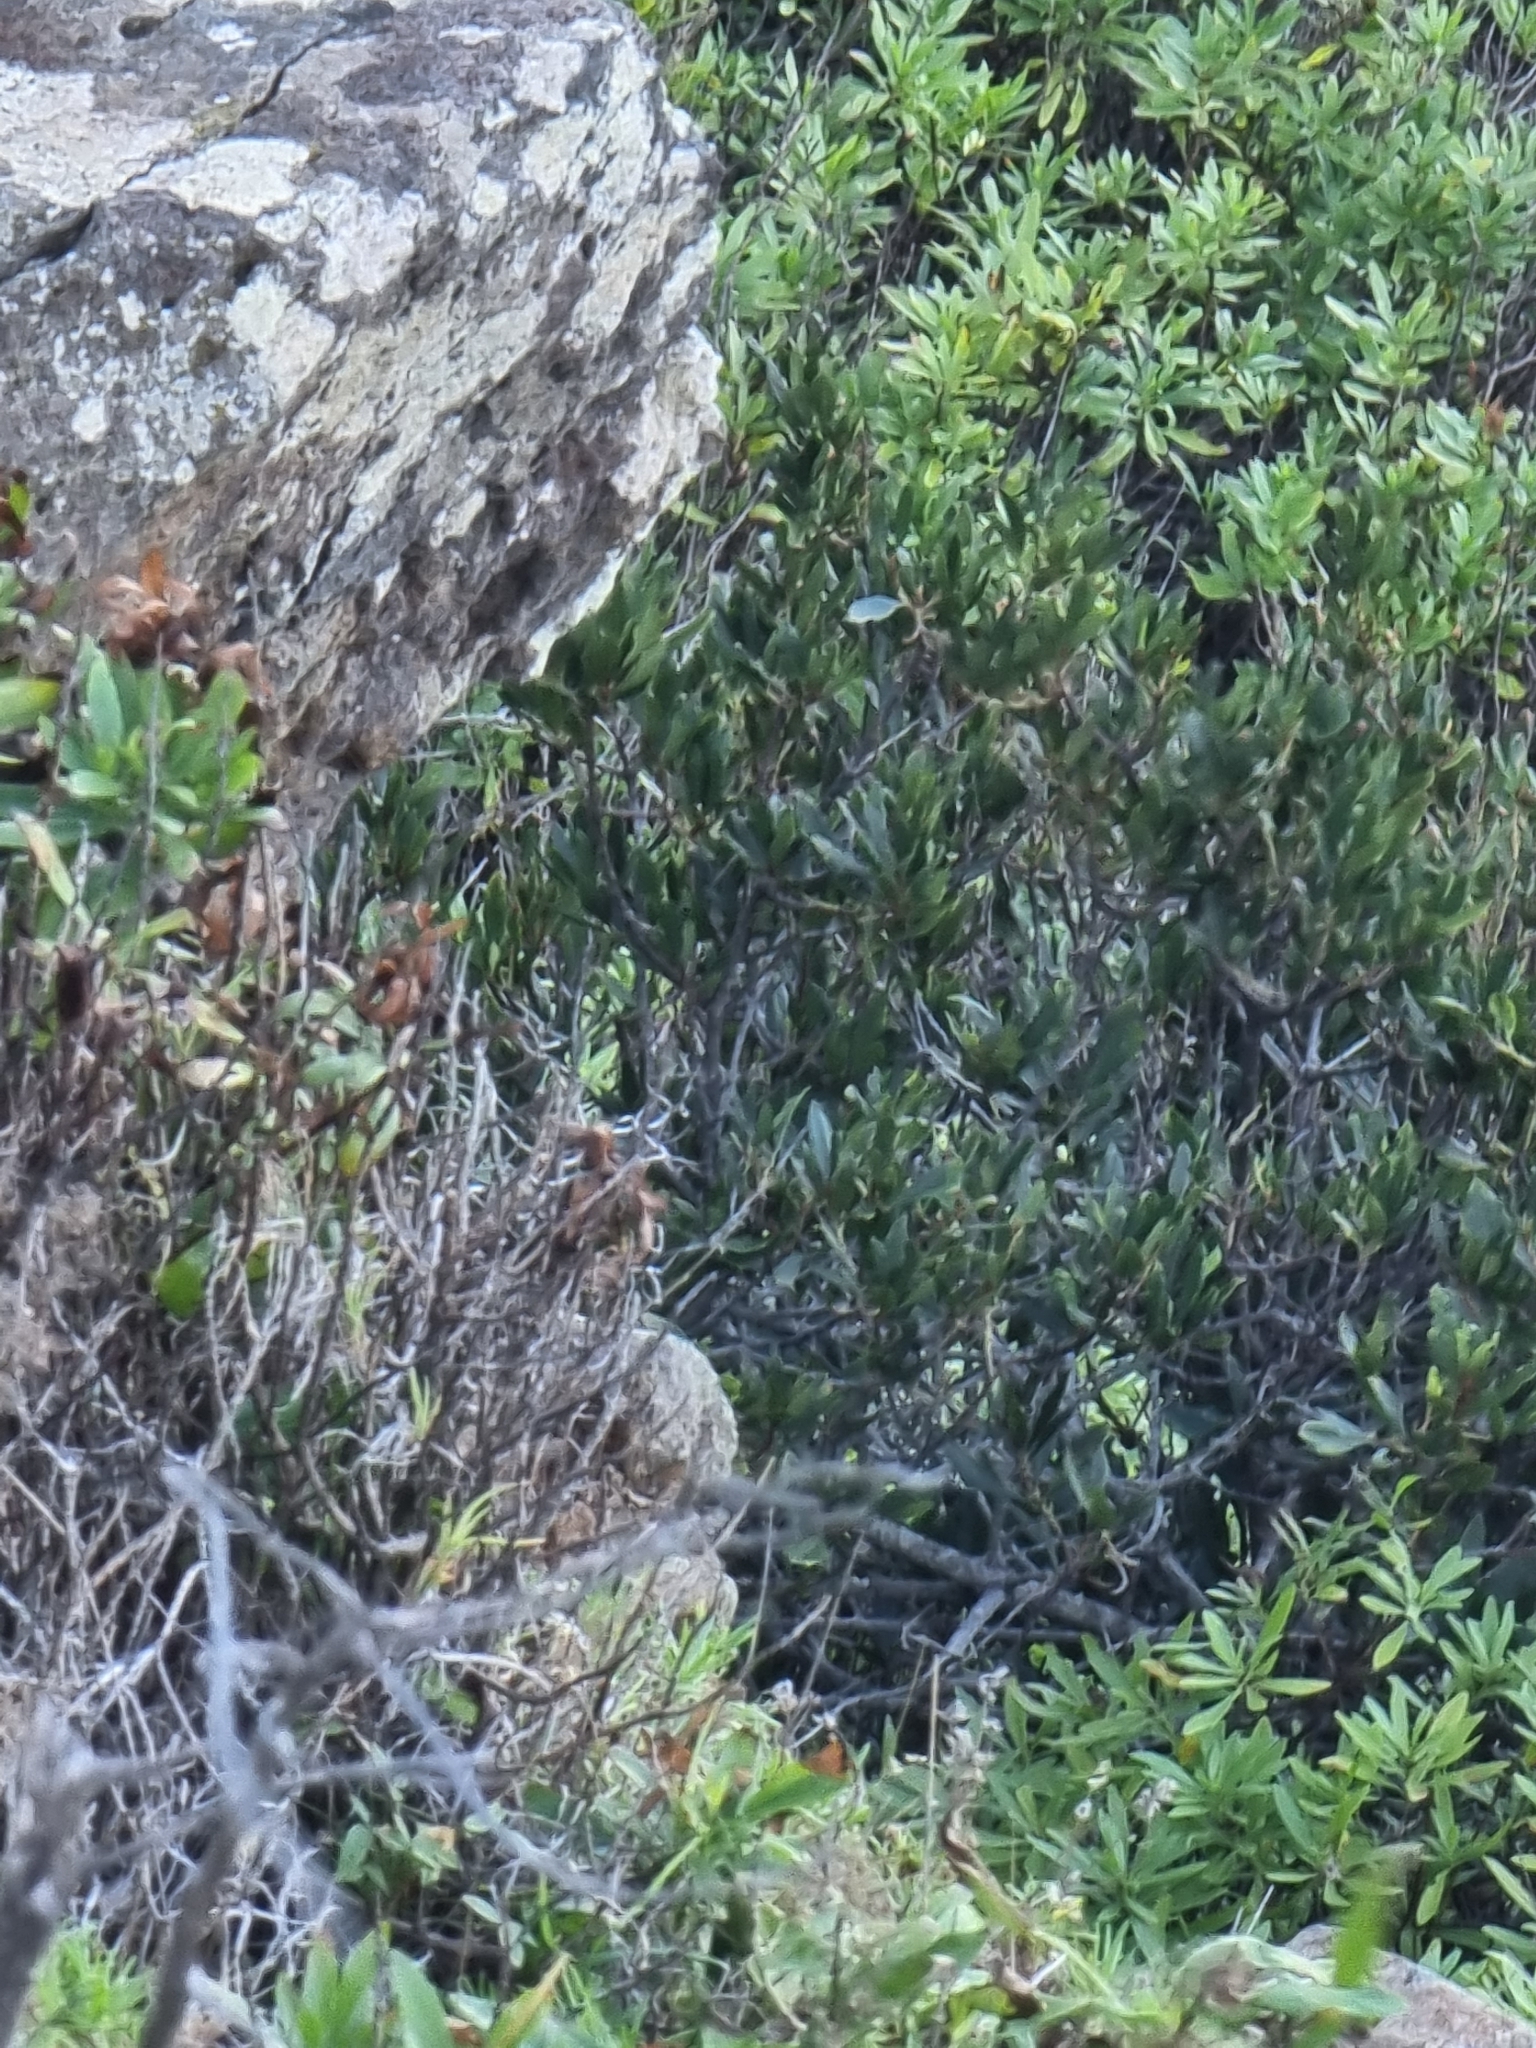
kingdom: Plantae
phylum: Tracheophyta
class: Magnoliopsida
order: Fagales
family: Myricaceae
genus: Morella
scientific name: Morella faya
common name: Firetree
